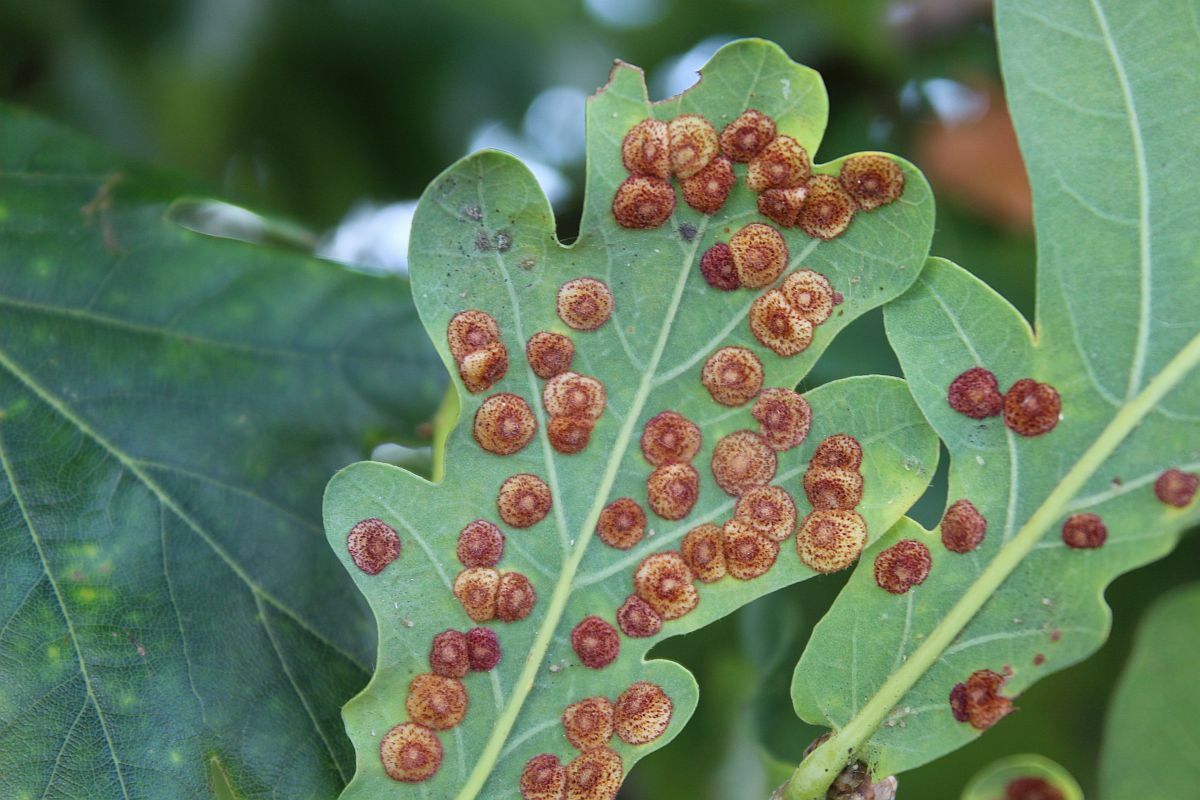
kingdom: Animalia
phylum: Arthropoda
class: Insecta
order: Hymenoptera
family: Cynipidae
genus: Neuroterus
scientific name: Neuroterus quercusbaccarum
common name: Common spangle gall
